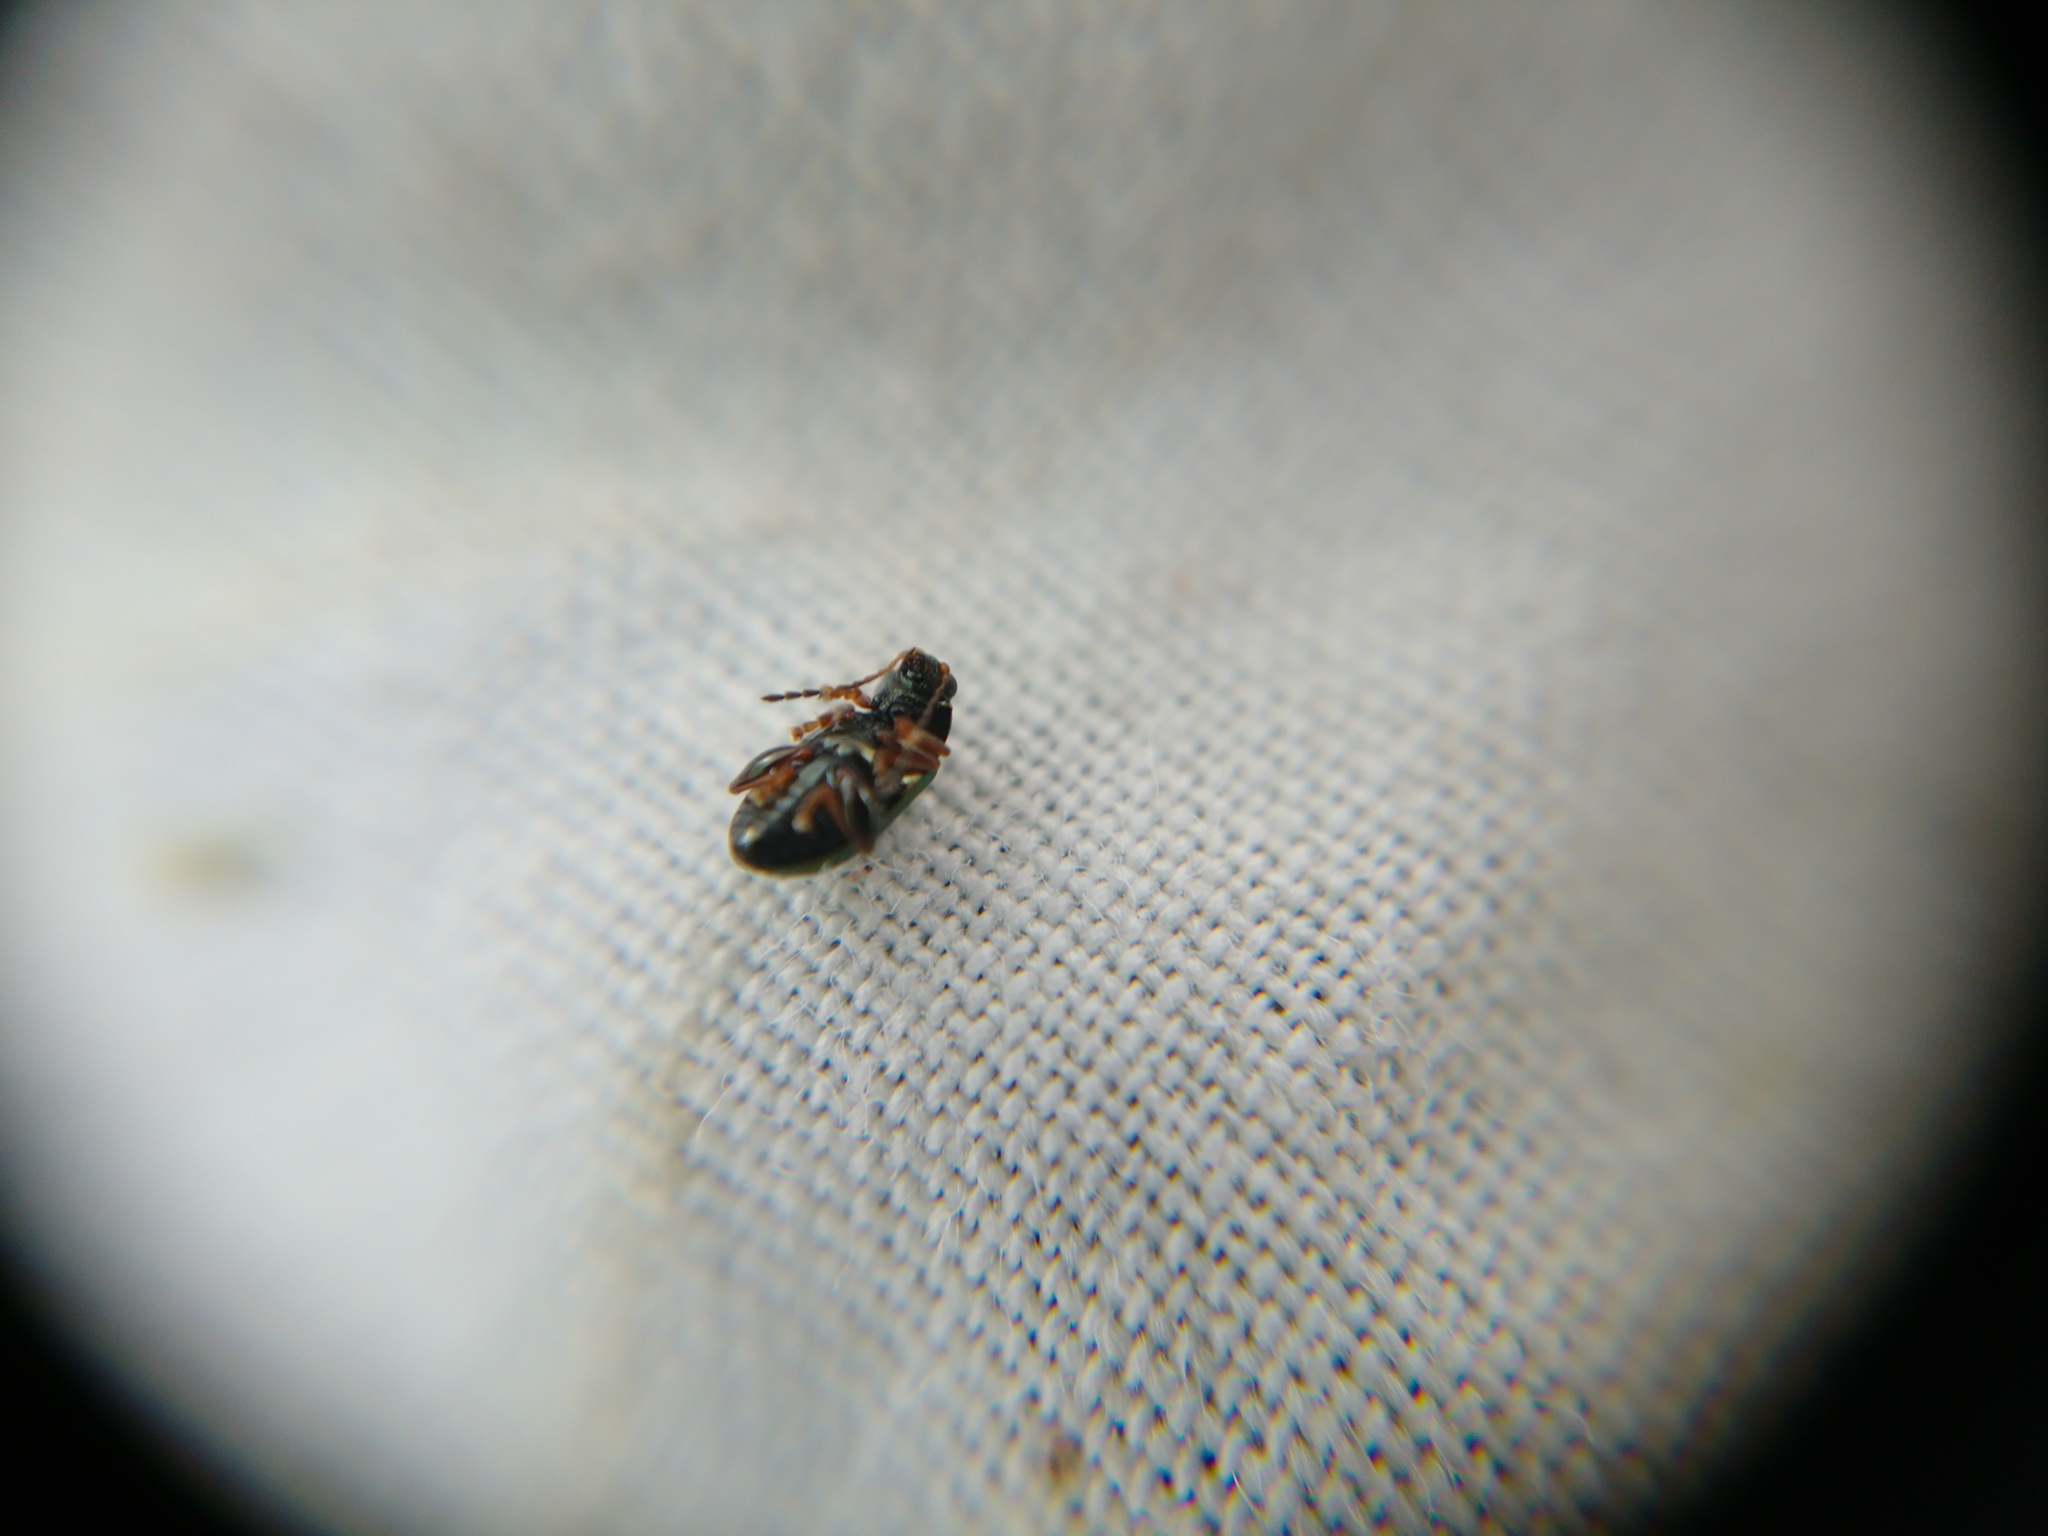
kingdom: Animalia
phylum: Arthropoda
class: Insecta
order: Coleoptera
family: Chrysomelidae
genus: Crepidodera
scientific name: Crepidodera aurata
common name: Willow flea beetle
